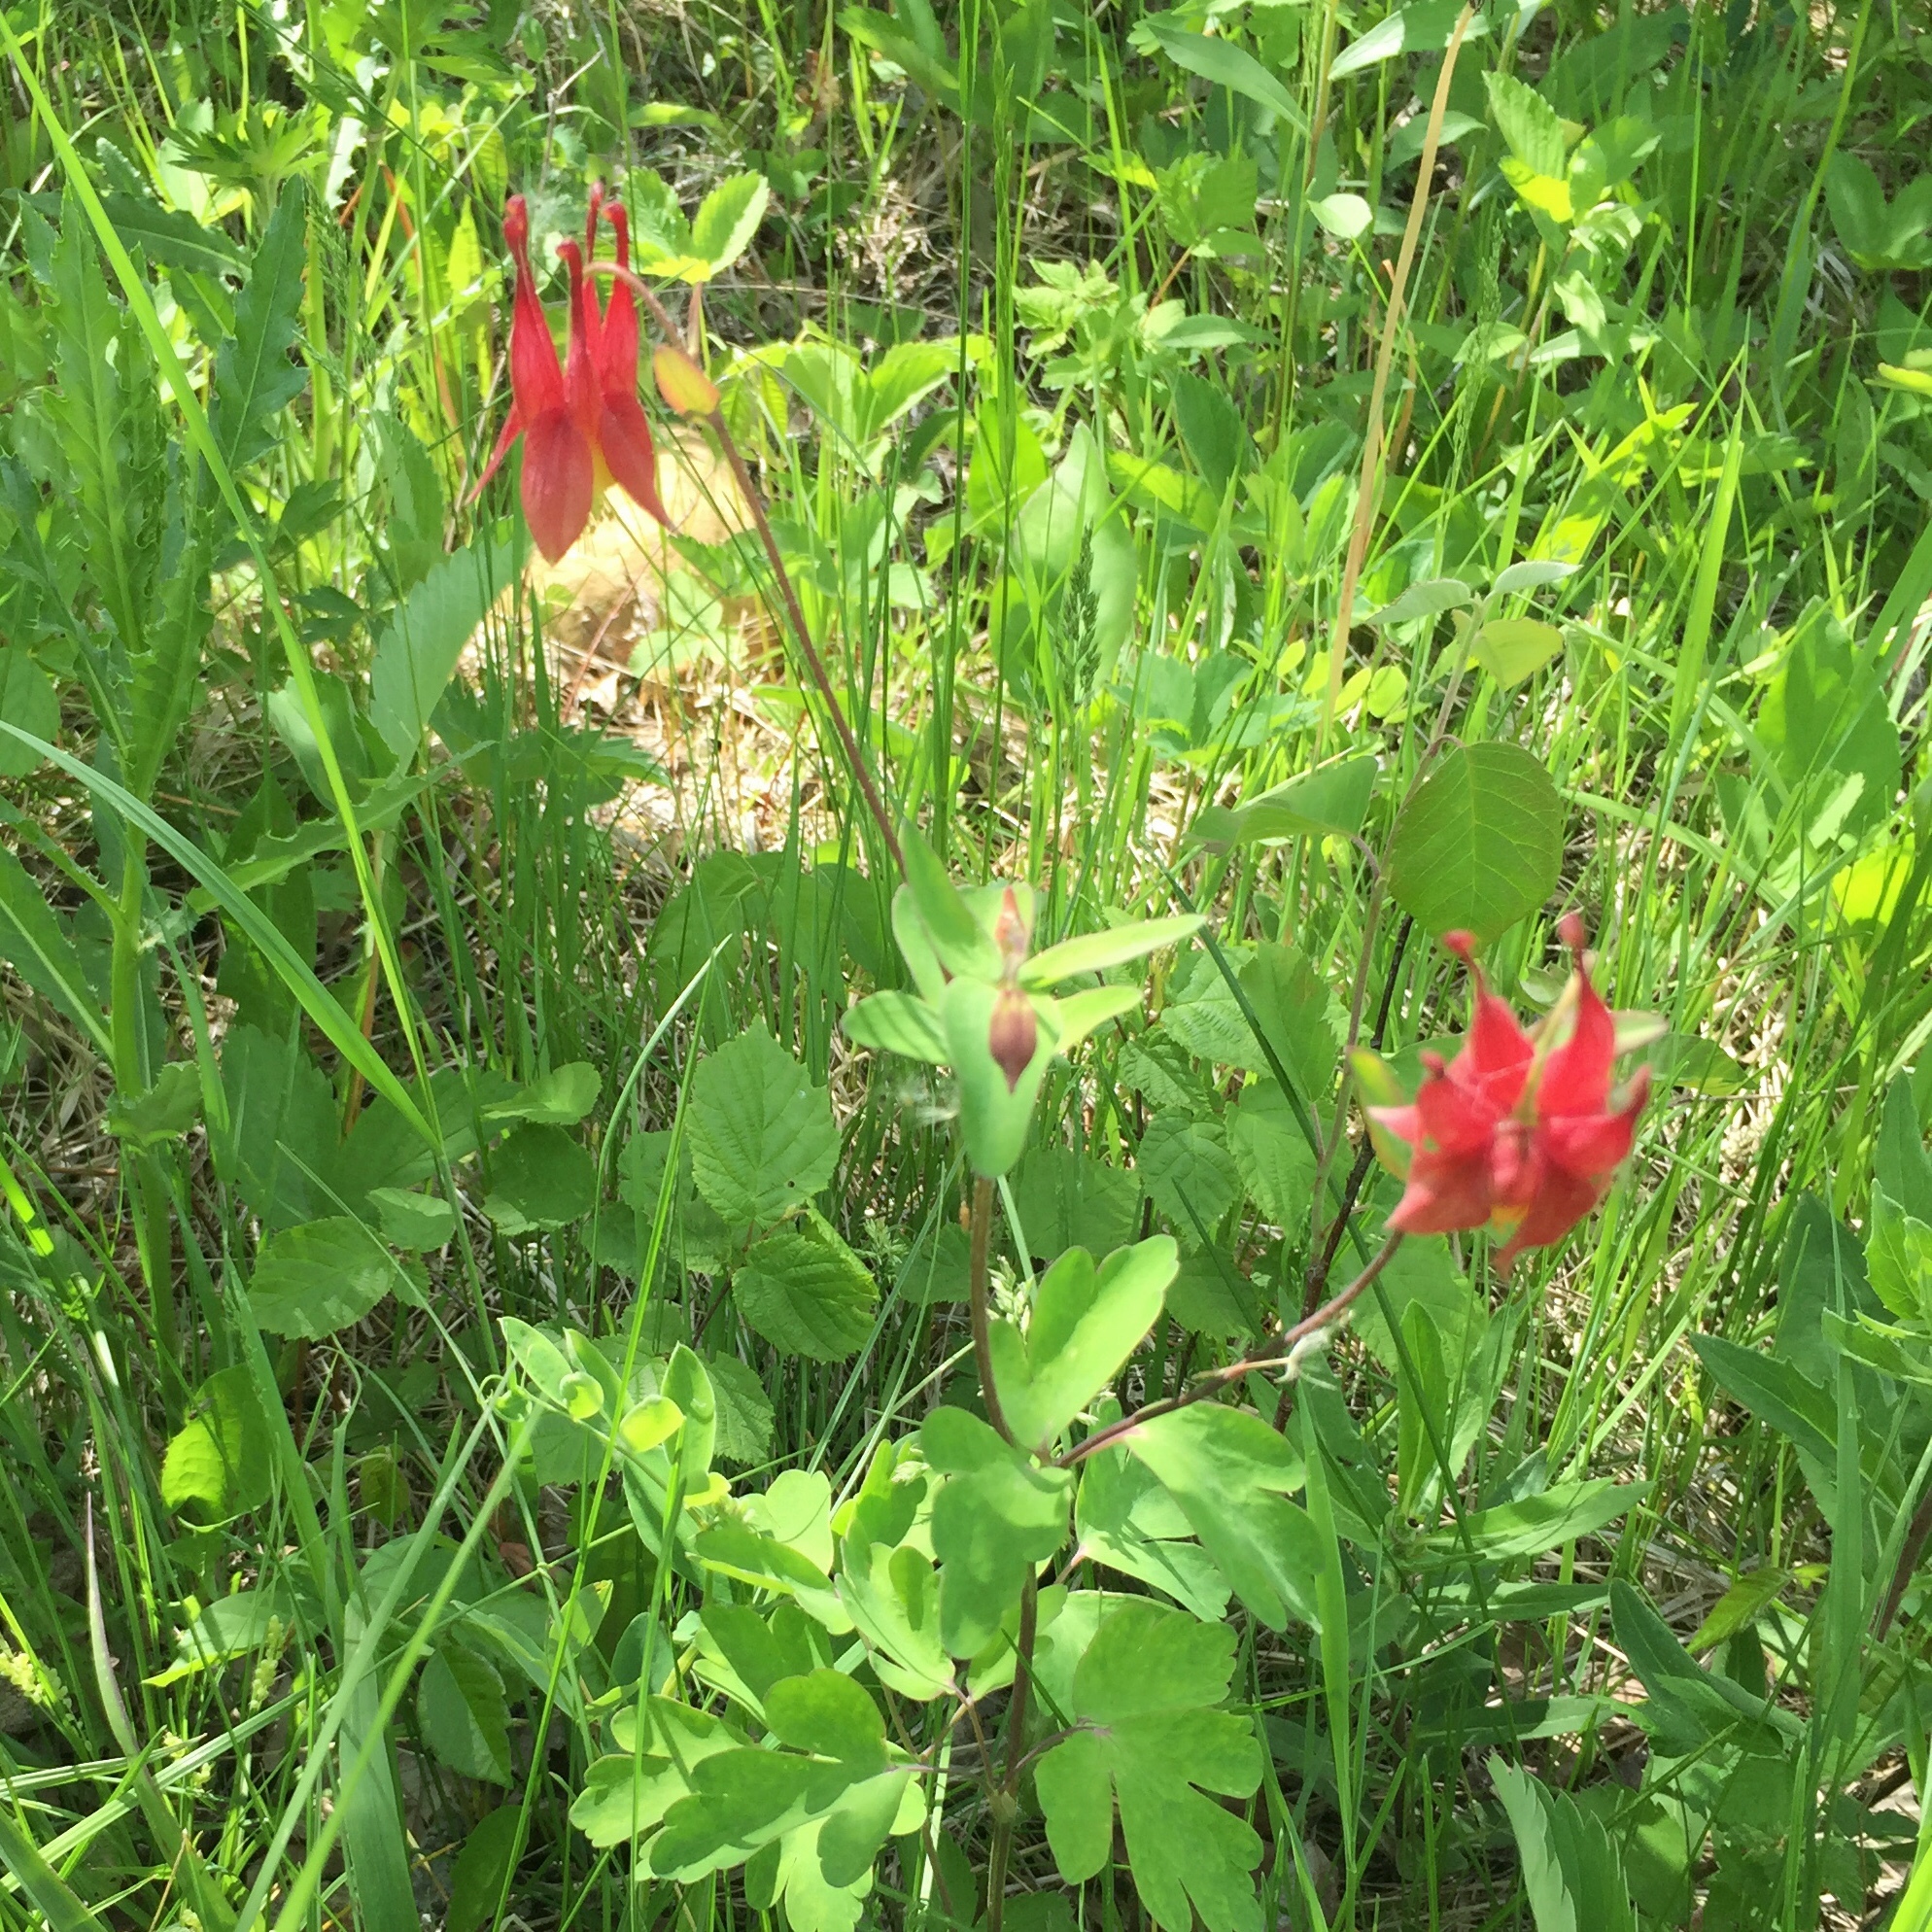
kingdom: Plantae
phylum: Tracheophyta
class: Magnoliopsida
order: Ranunculales
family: Ranunculaceae
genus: Aquilegia
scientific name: Aquilegia canadensis
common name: American columbine
